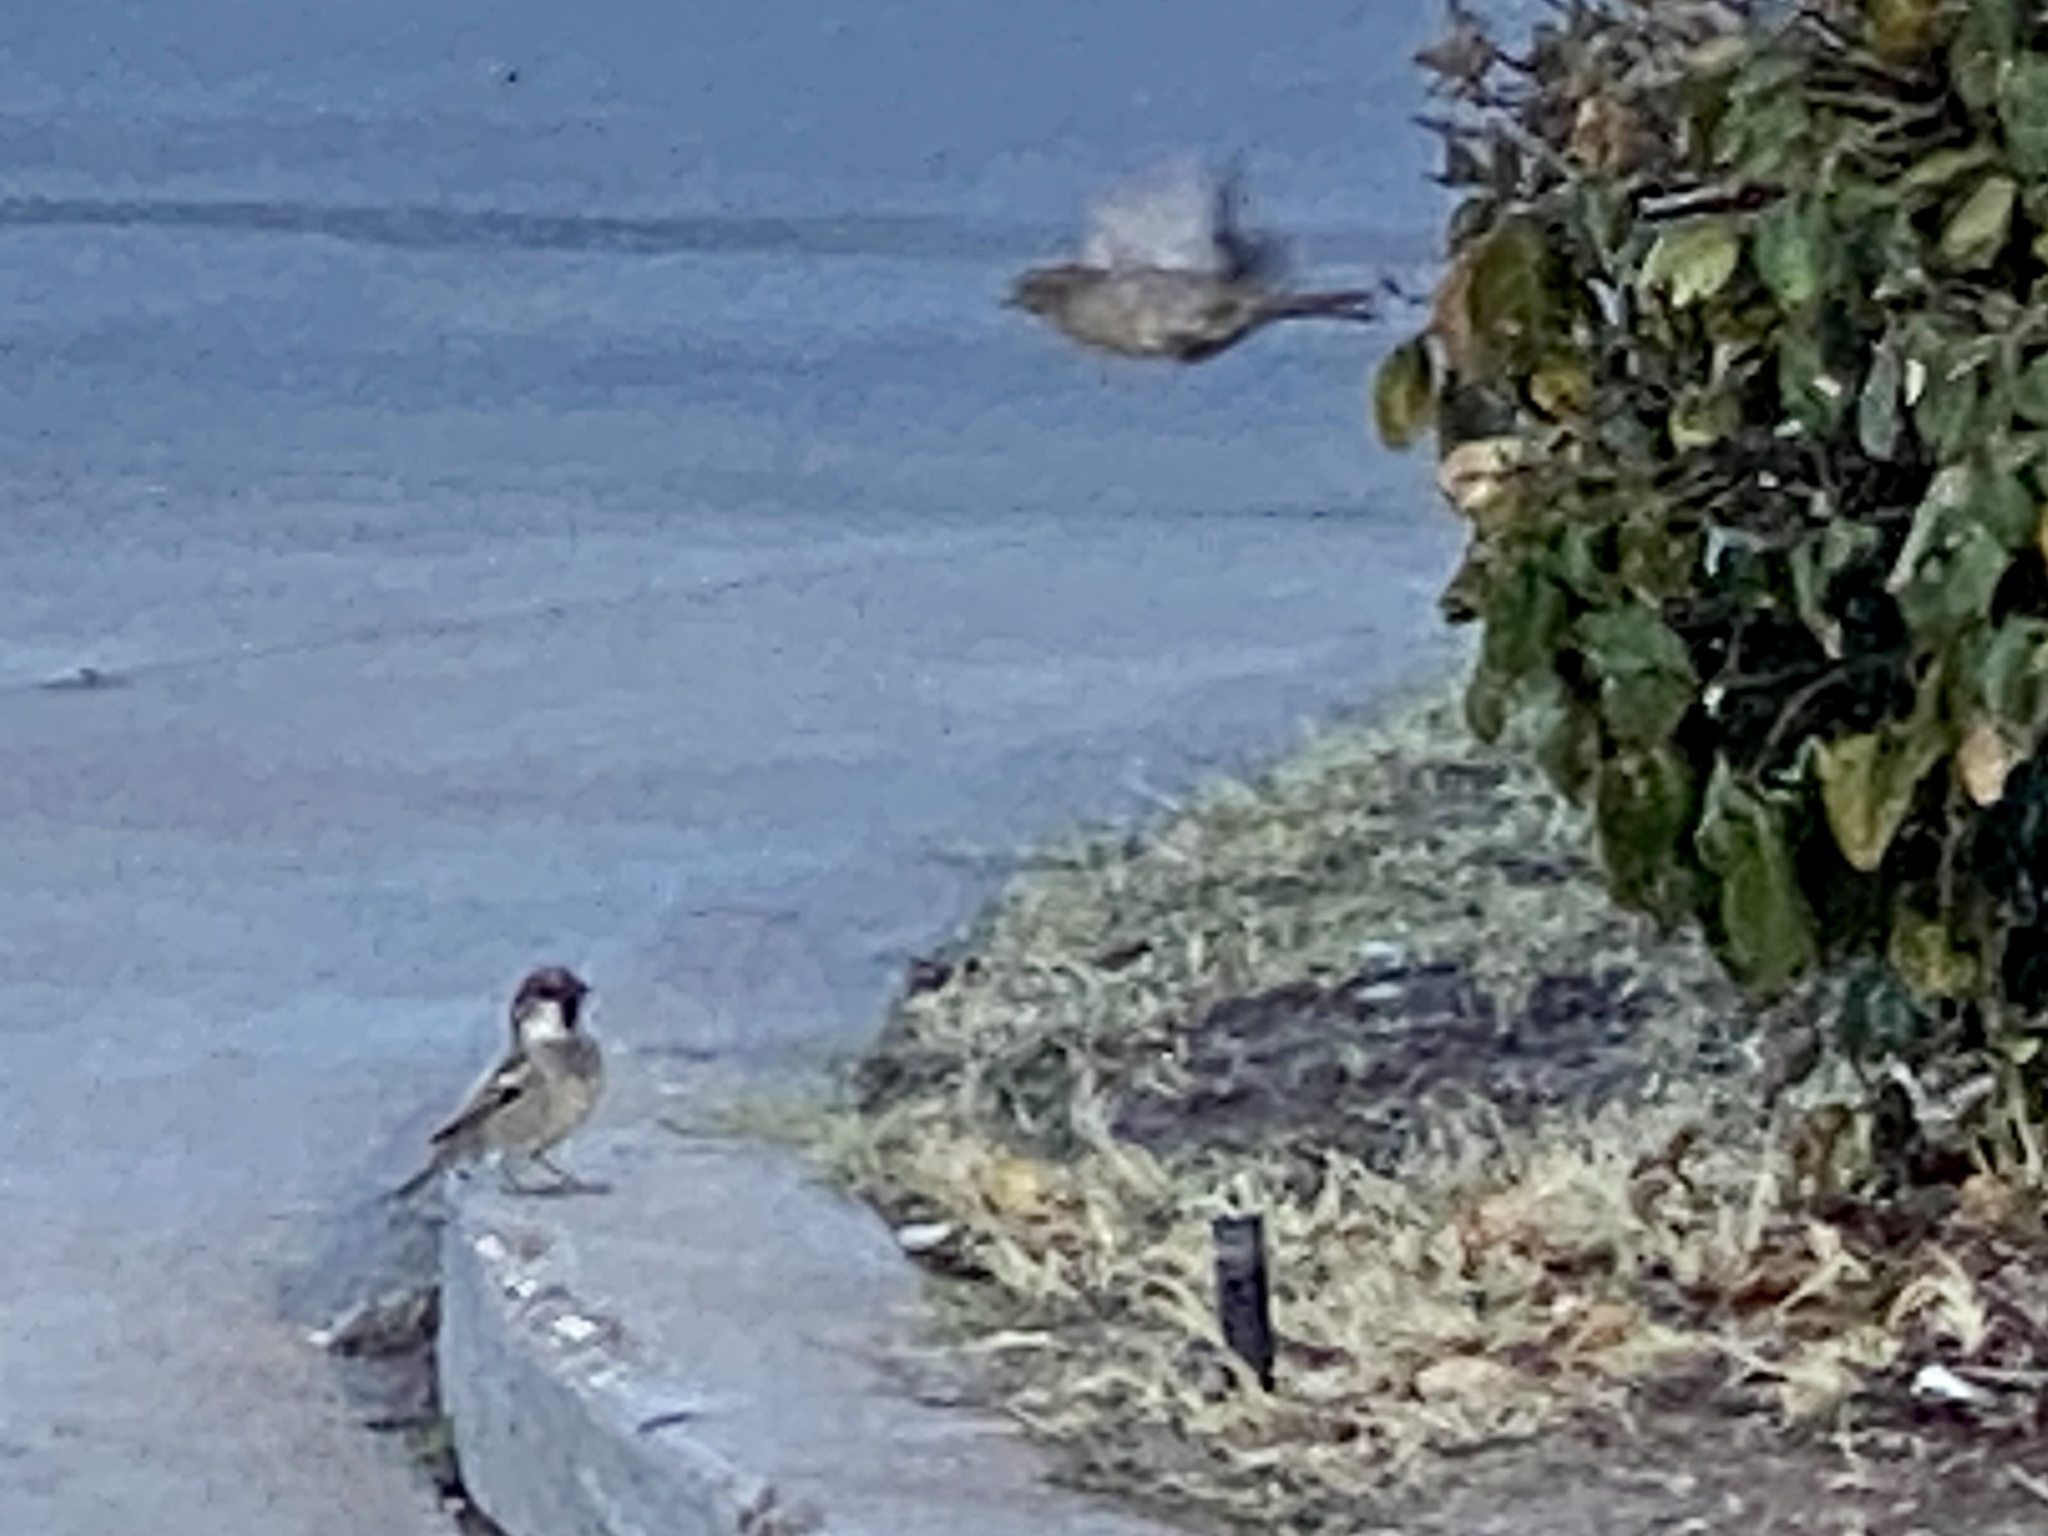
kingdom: Animalia
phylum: Chordata
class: Aves
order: Passeriformes
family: Passeridae
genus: Passer
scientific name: Passer domesticus
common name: House sparrow
